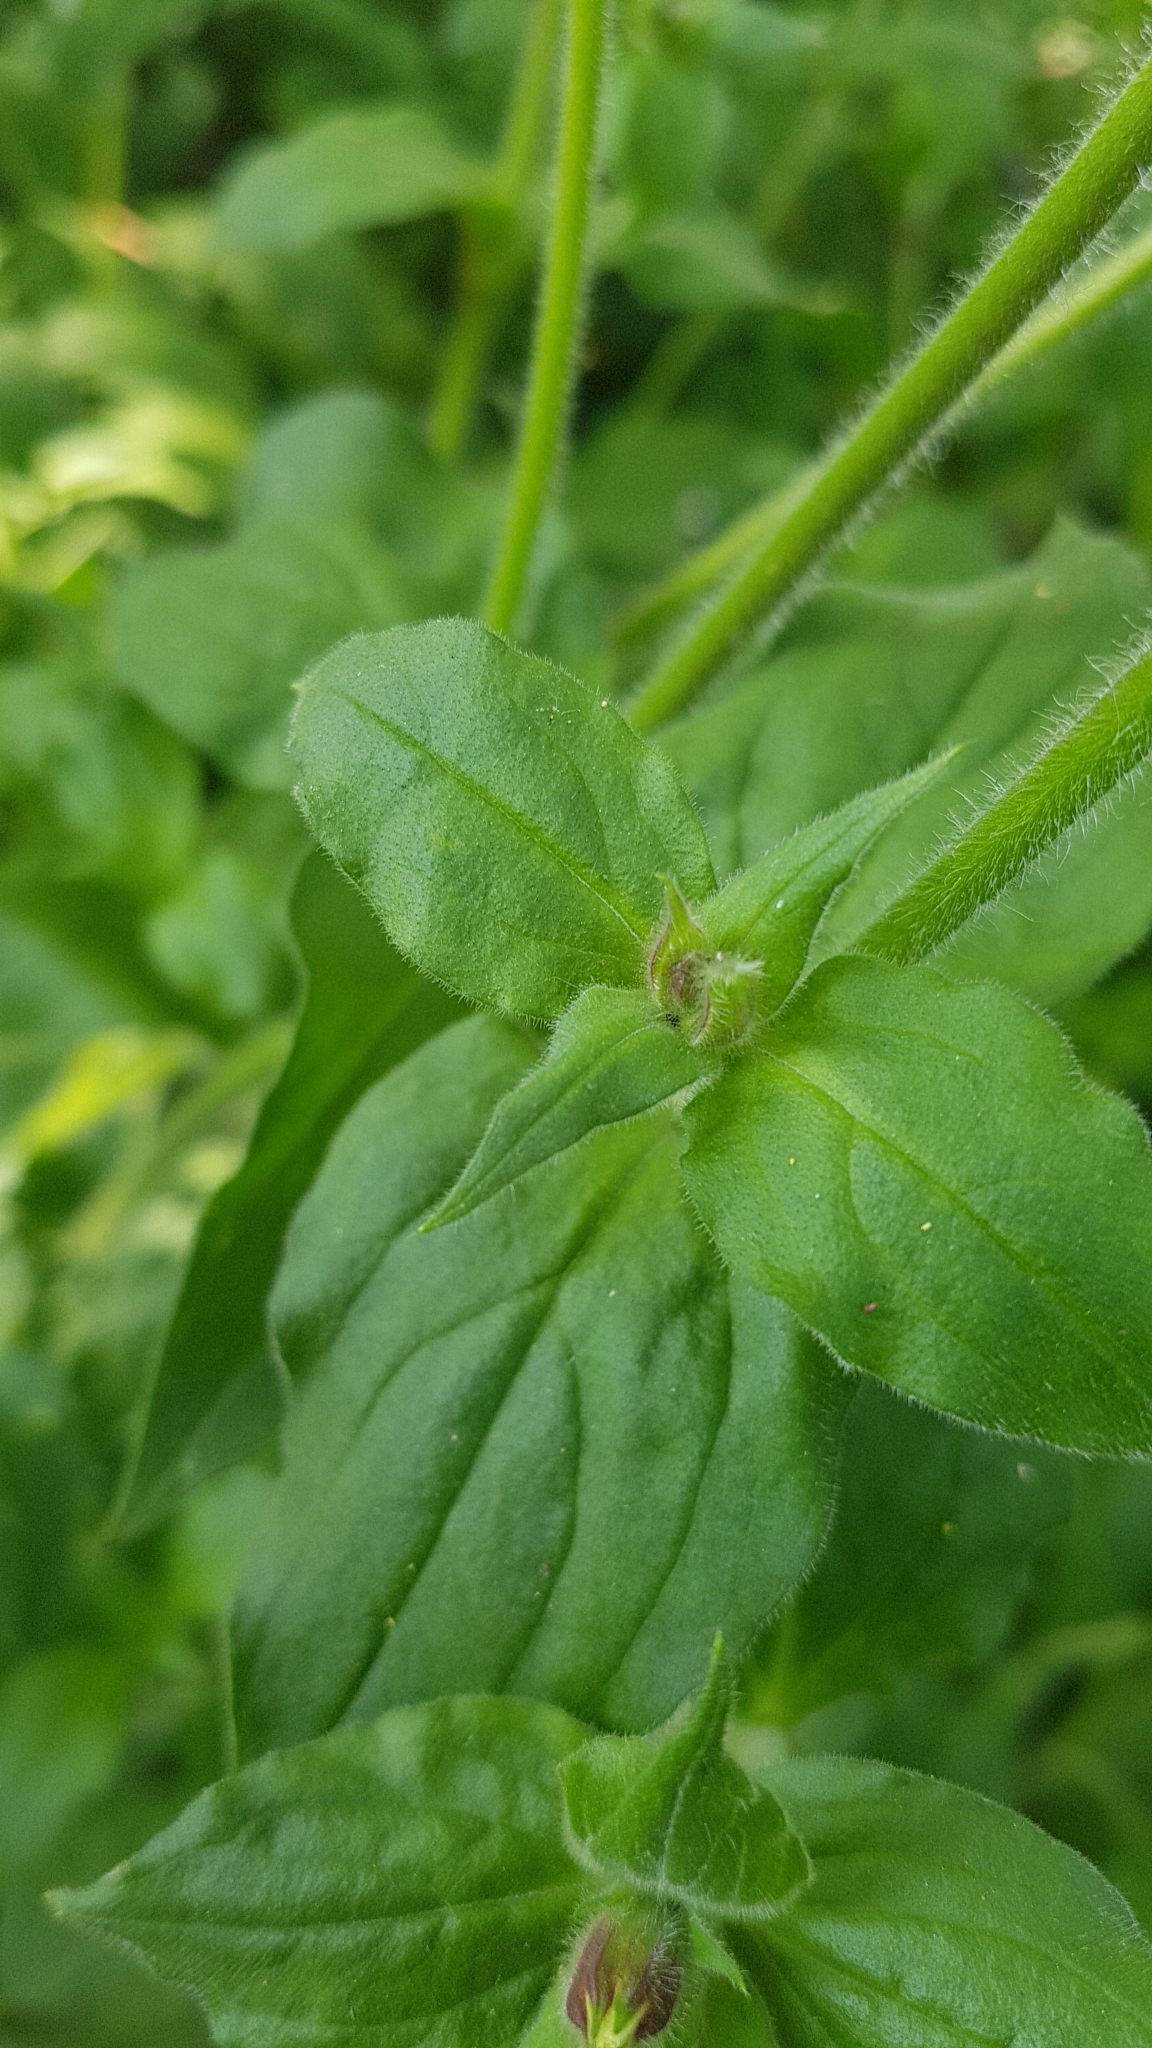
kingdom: Plantae
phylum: Tracheophyta
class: Magnoliopsida
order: Caryophyllales
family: Caryophyllaceae
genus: Silene
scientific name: Silene dioica
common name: Red campion
